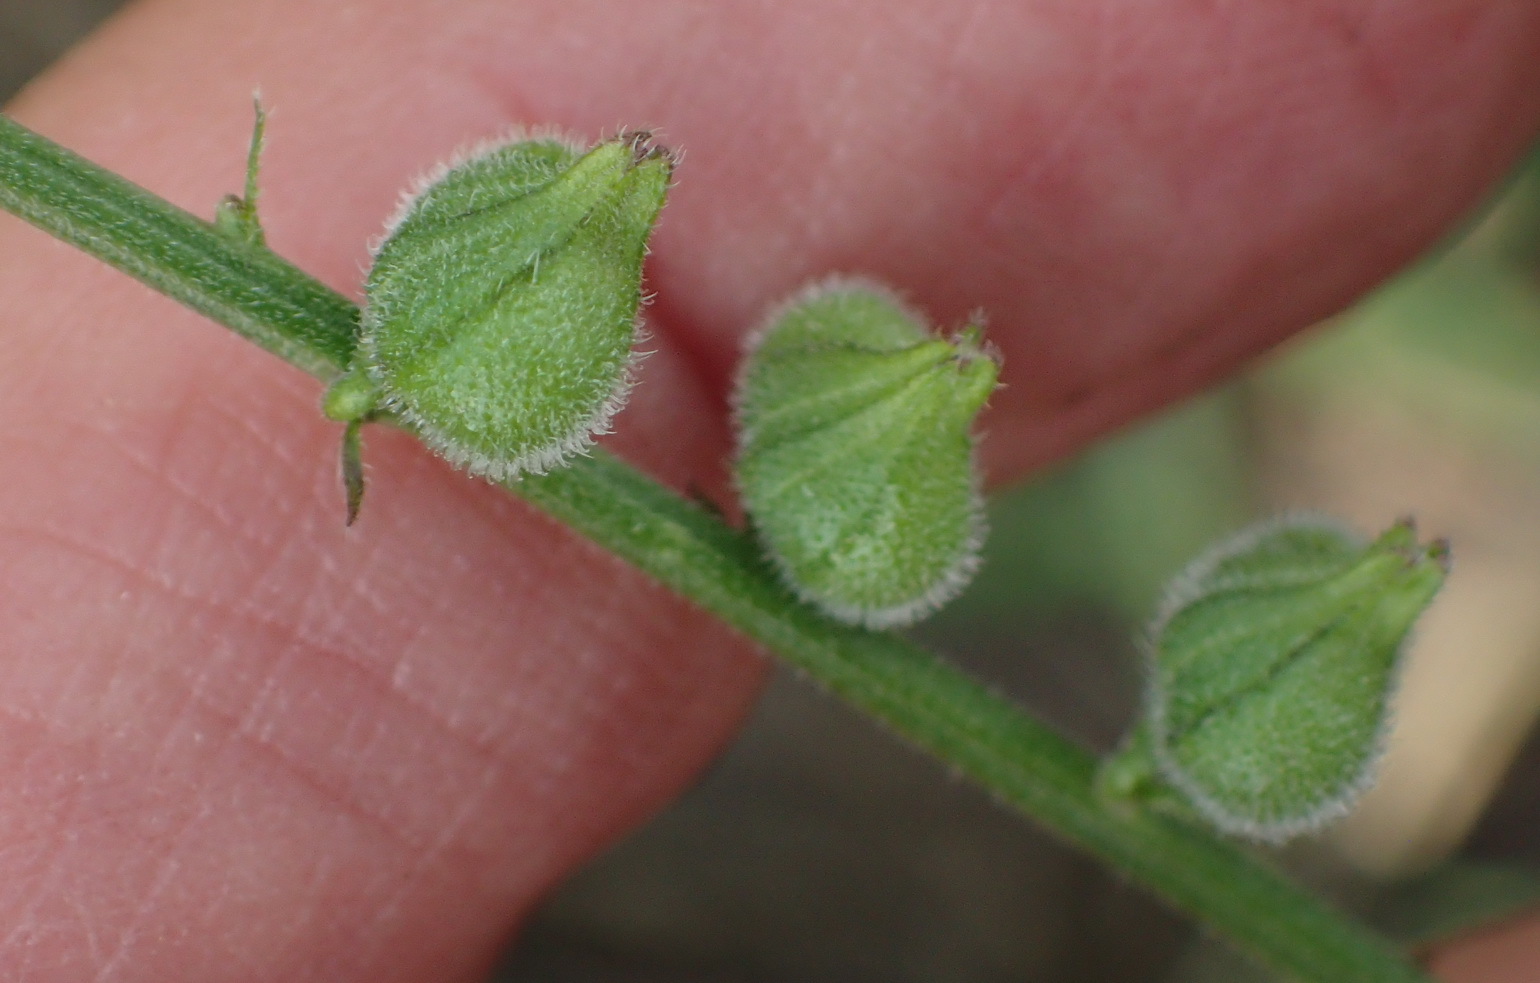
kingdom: Plantae
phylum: Tracheophyta
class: Magnoliopsida
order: Lamiales
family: Verbenaceae
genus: Priva
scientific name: Priva adhaerens
